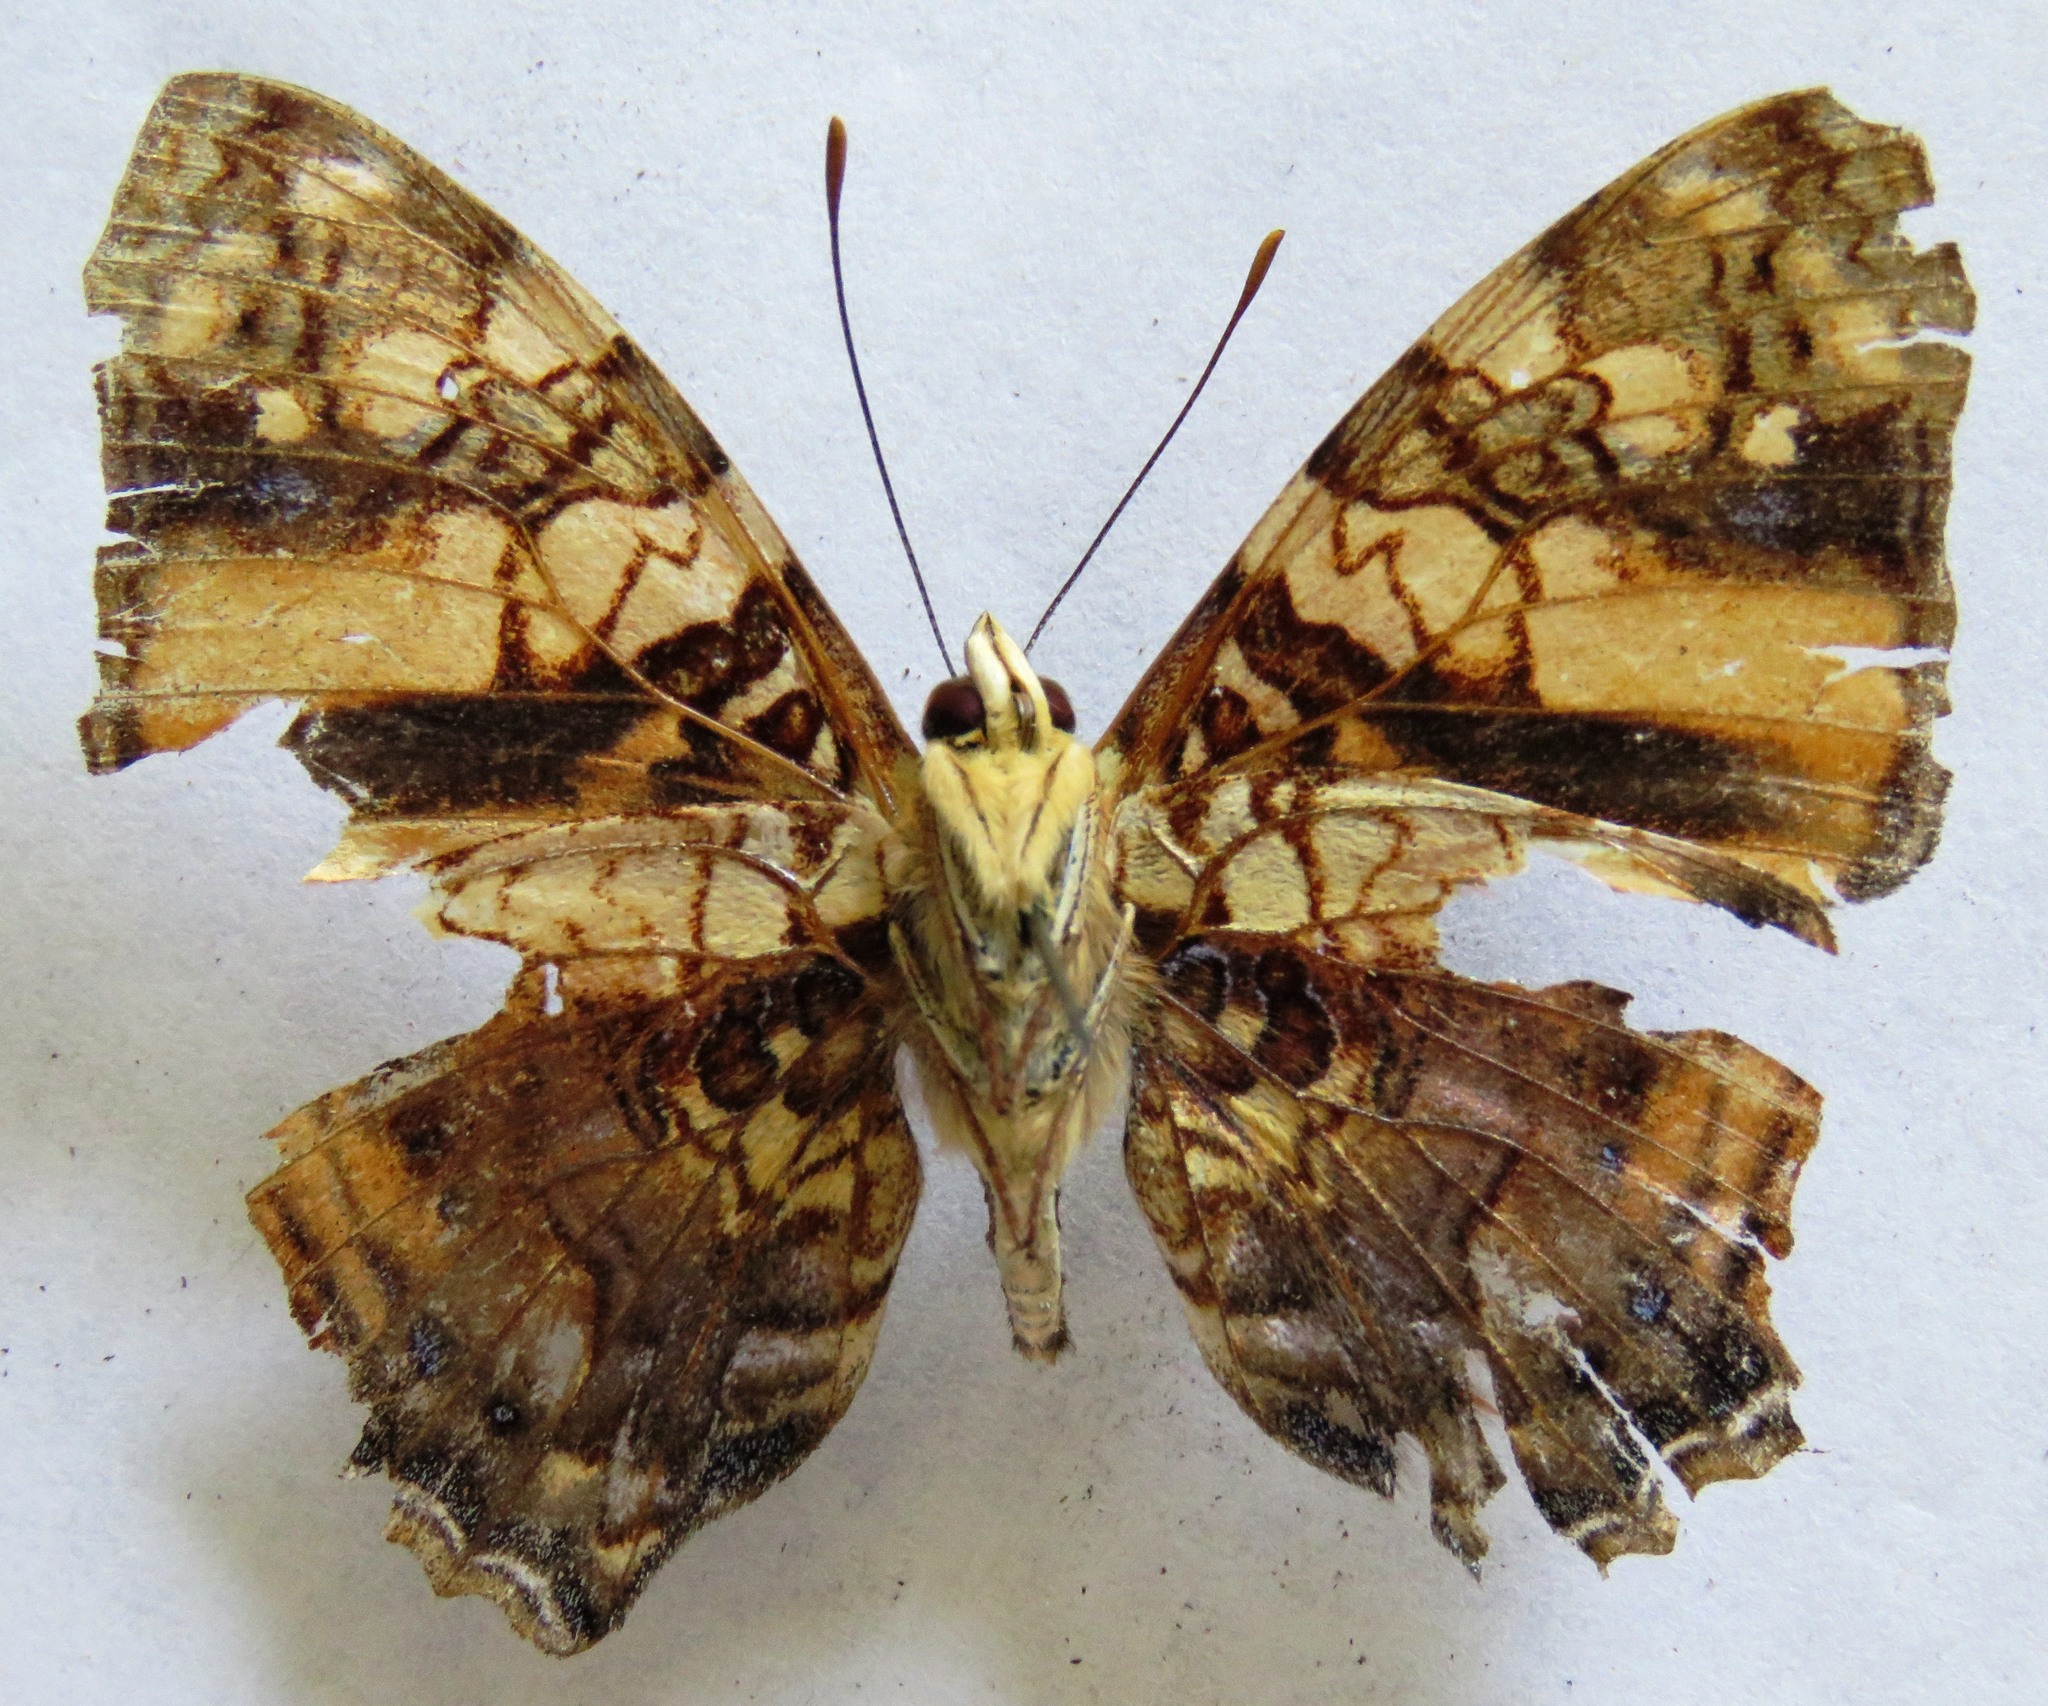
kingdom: Animalia
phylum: Arthropoda
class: Insecta
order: Lepidoptera
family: Nymphalidae
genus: Hypanartia
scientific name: Hypanartia lethe
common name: Orange mapwing
